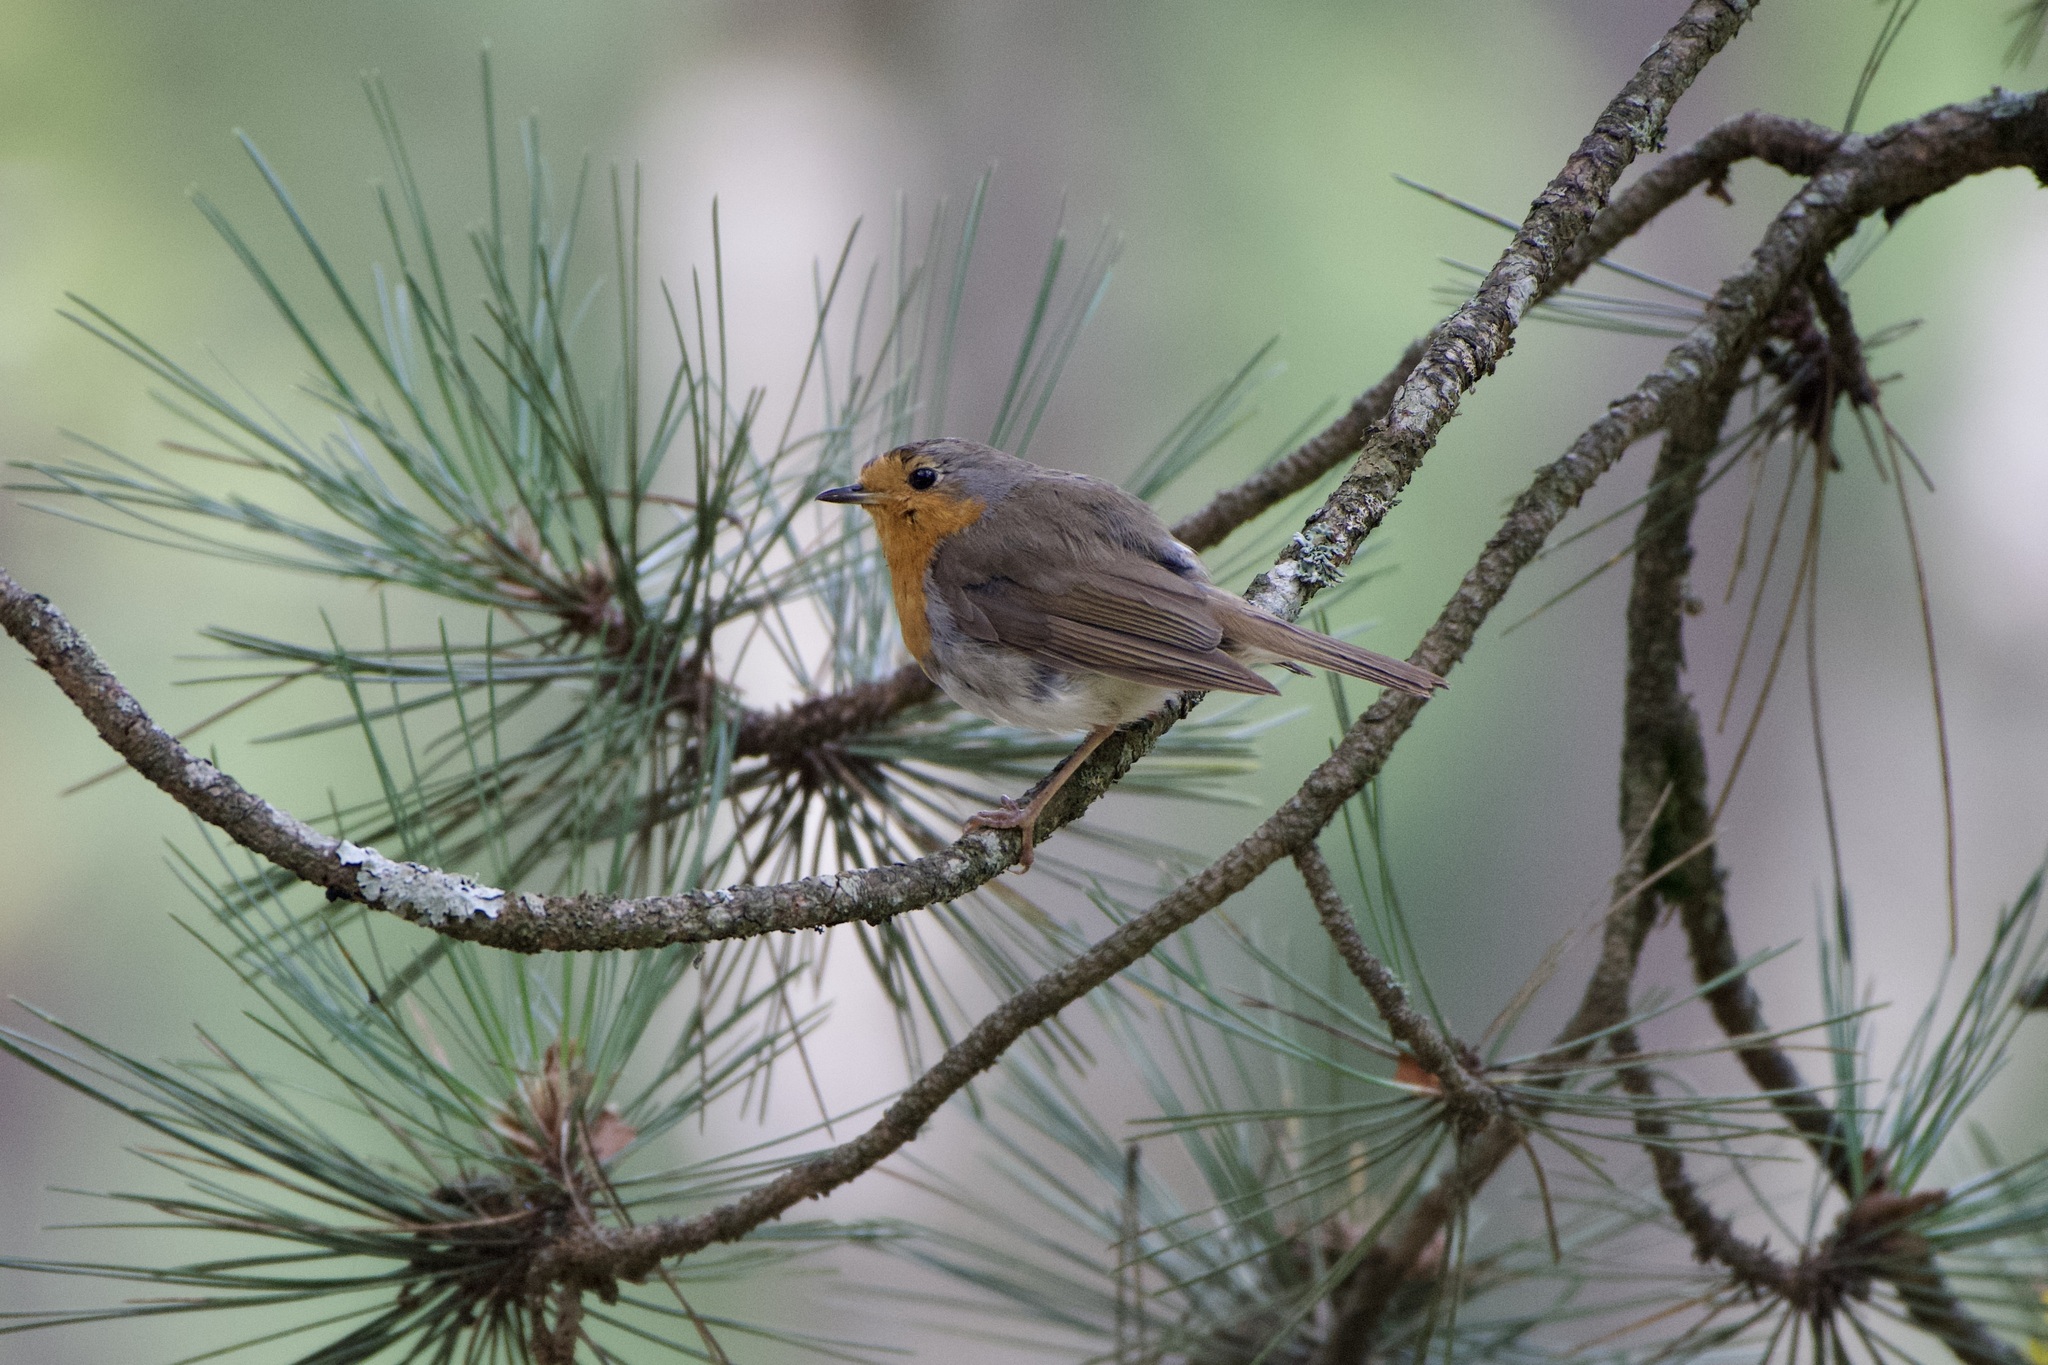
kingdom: Animalia
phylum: Chordata
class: Aves
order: Passeriformes
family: Muscicapidae
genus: Erithacus
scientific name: Erithacus rubecula
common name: European robin
